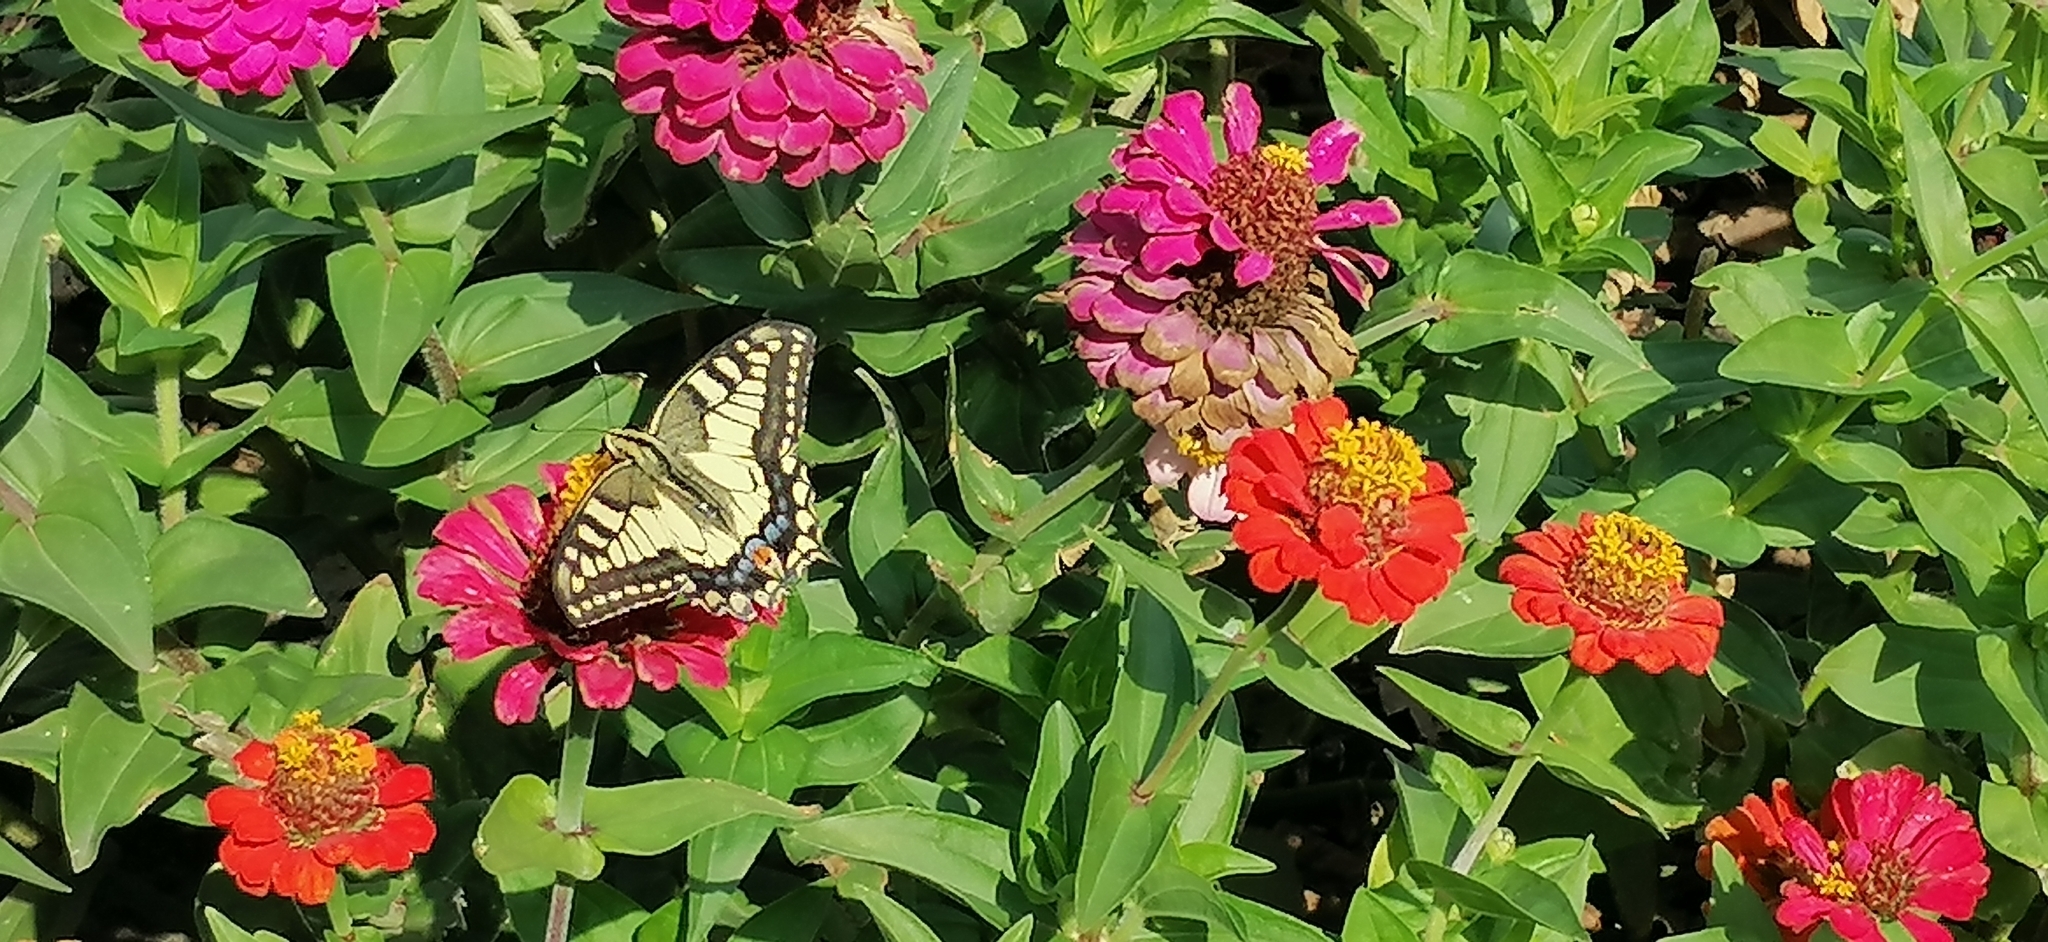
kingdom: Animalia
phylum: Arthropoda
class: Insecta
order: Lepidoptera
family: Papilionidae
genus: Papilio
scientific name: Papilio machaon
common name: Swallowtail
